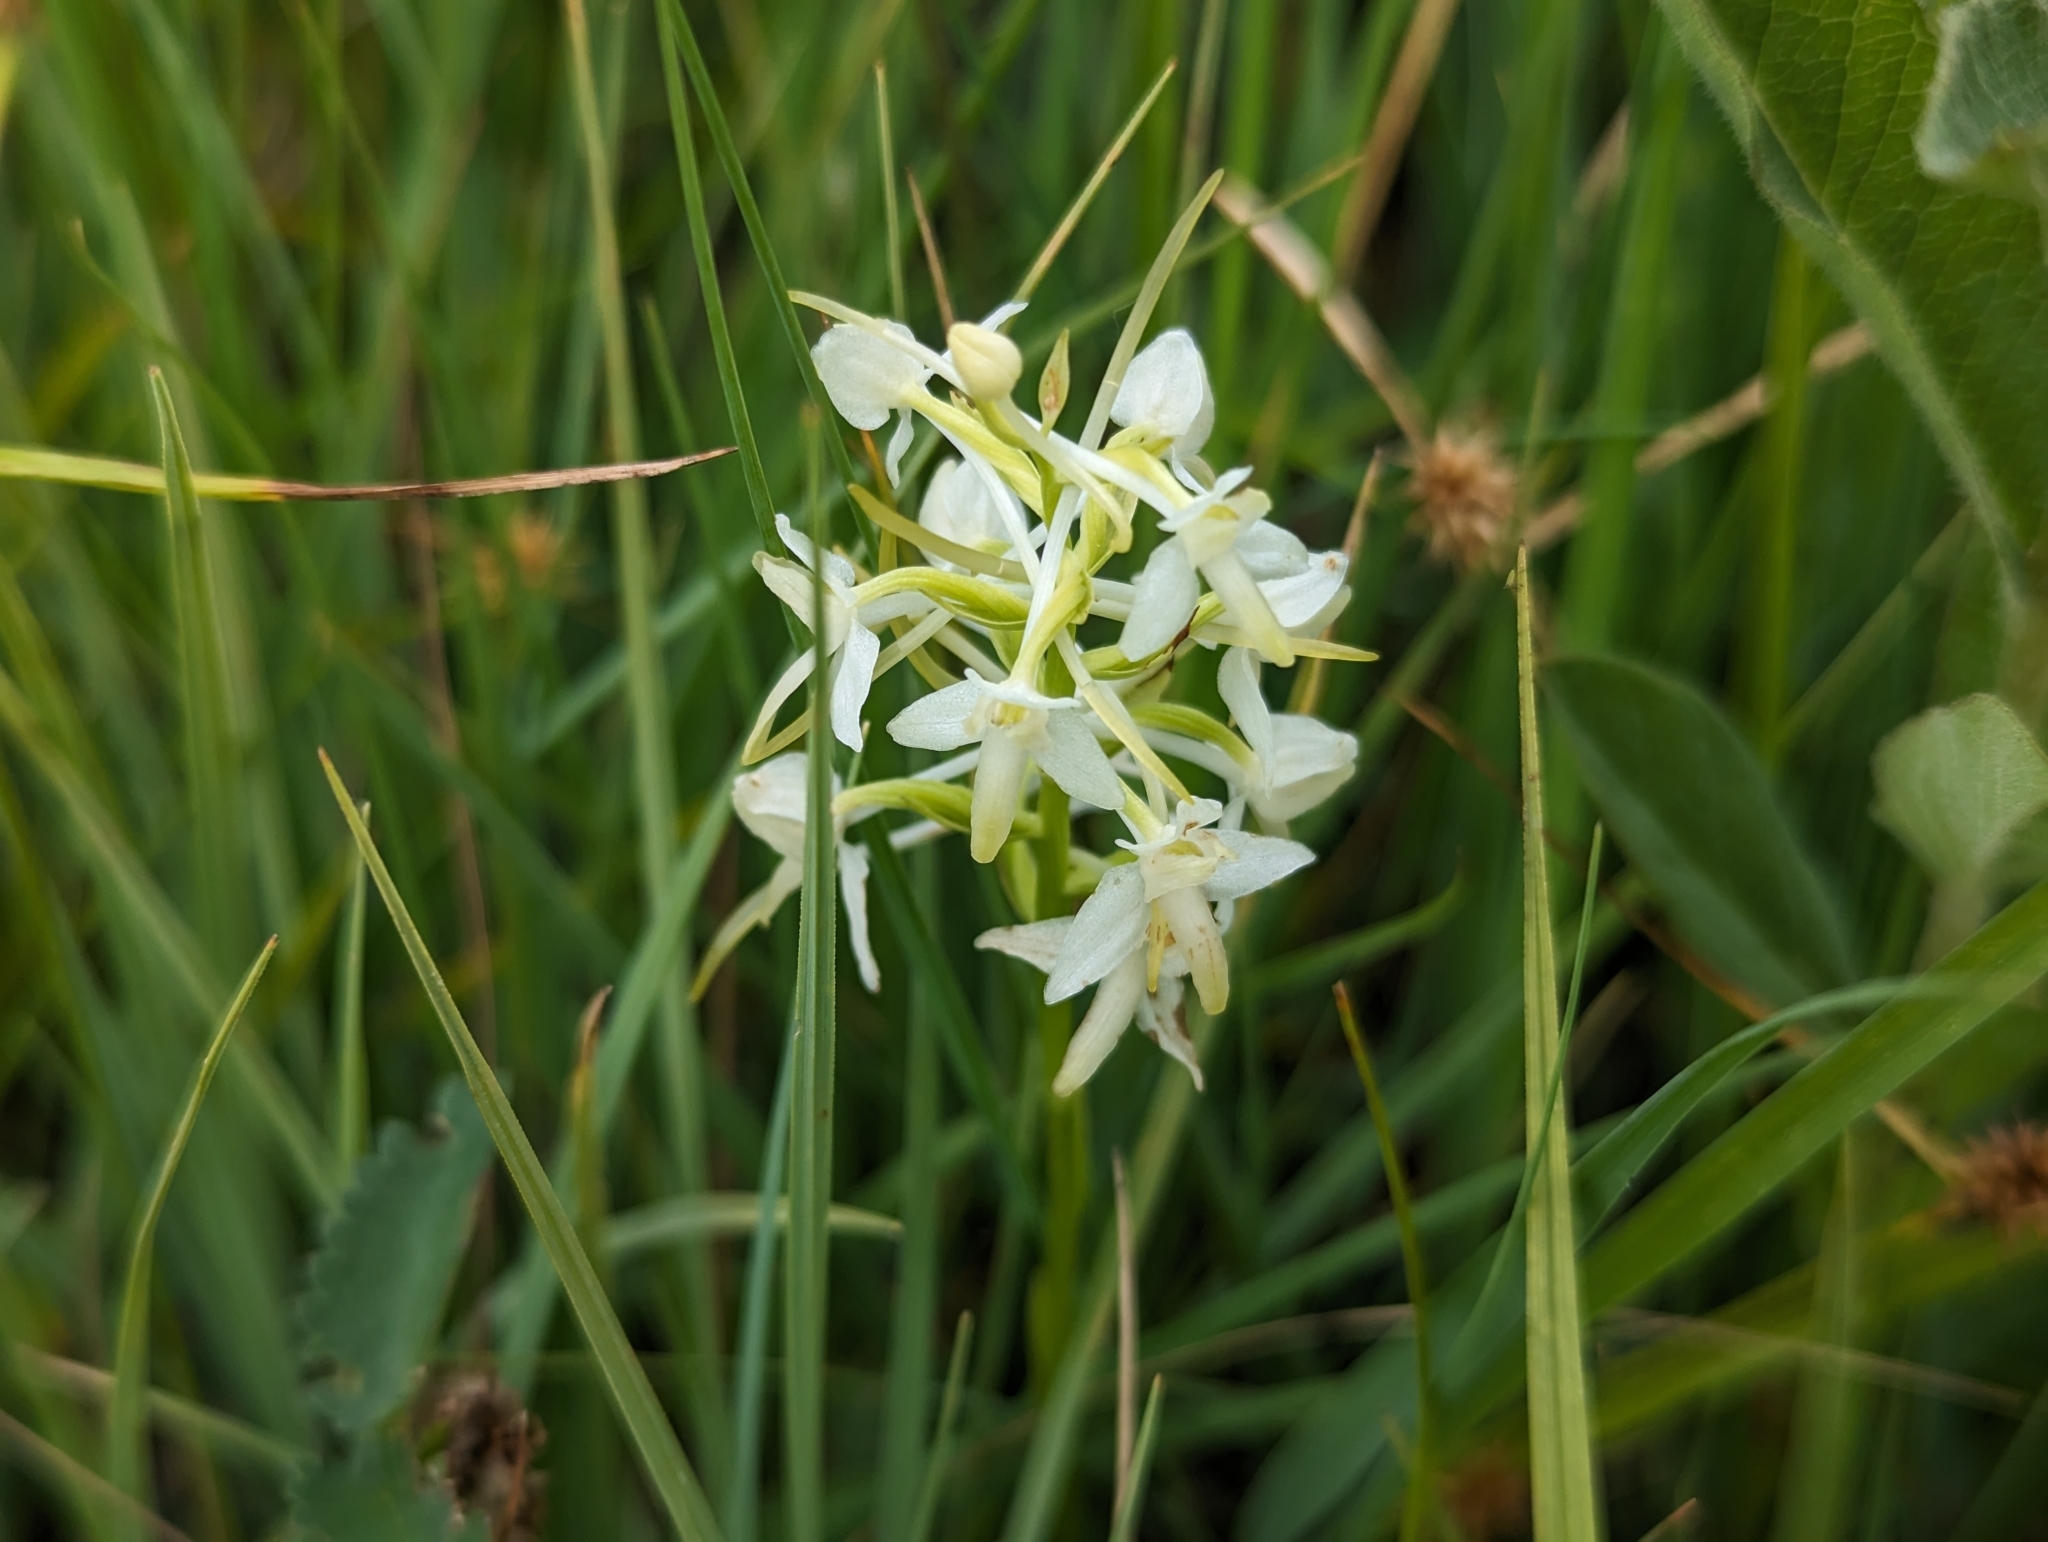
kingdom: Plantae
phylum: Tracheophyta
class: Liliopsida
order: Asparagales
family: Orchidaceae
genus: Platanthera
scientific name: Platanthera bifolia
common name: Lesser butterfly-orchid
